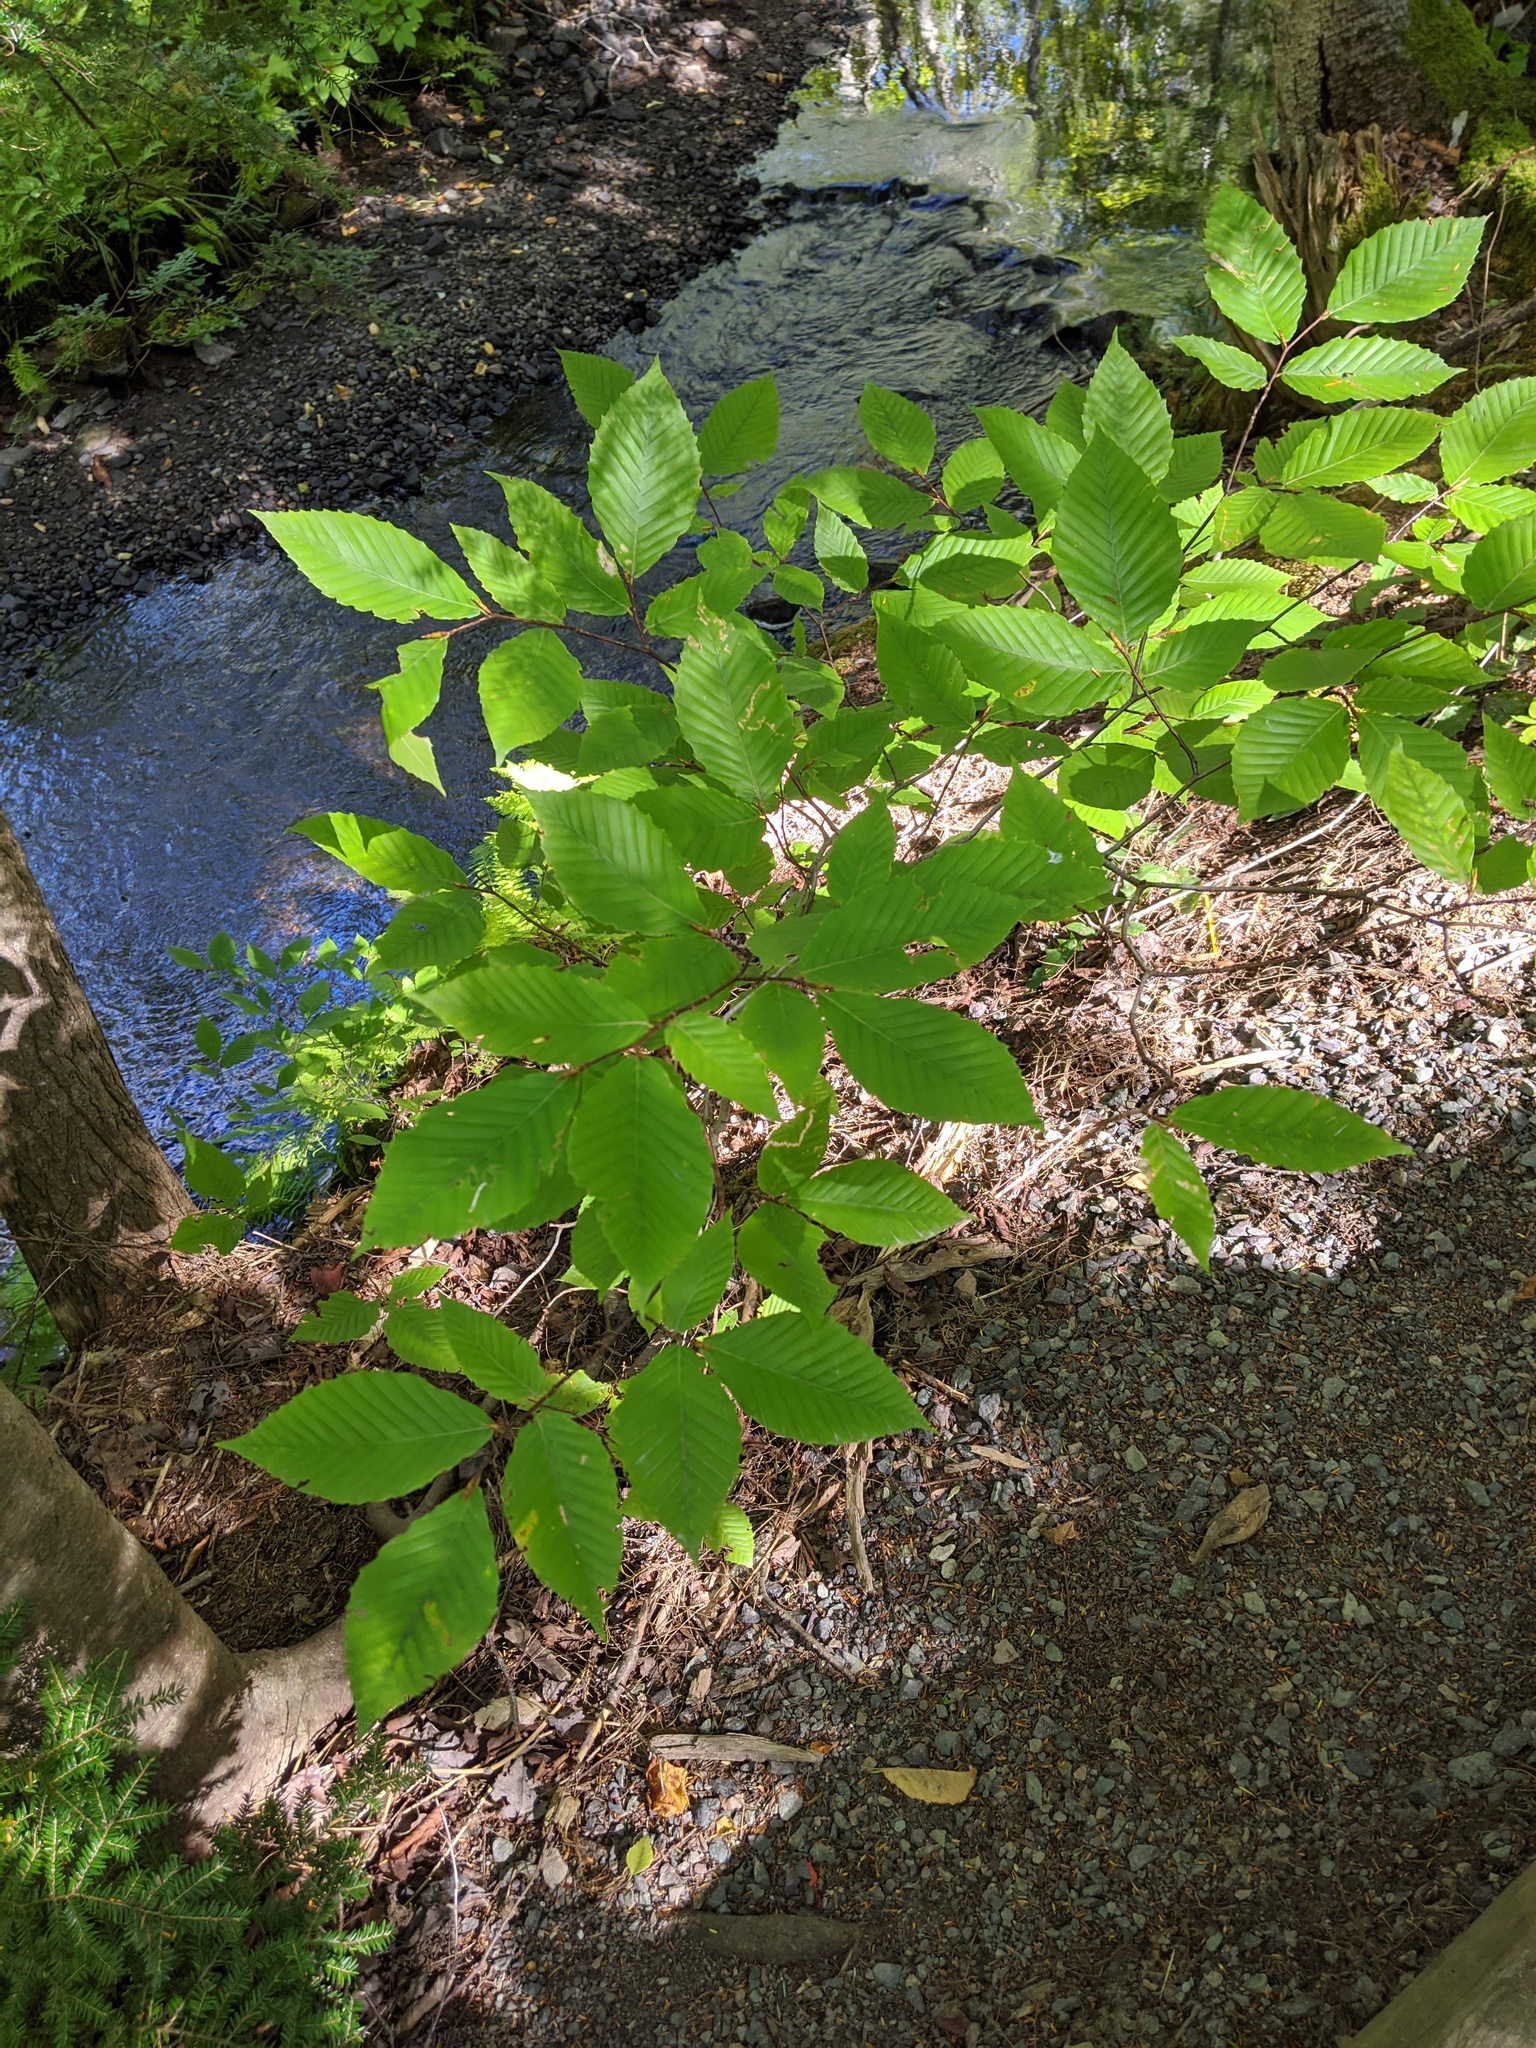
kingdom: Plantae
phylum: Tracheophyta
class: Magnoliopsida
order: Fagales
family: Fagaceae
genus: Fagus
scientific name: Fagus grandifolia
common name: American beech
